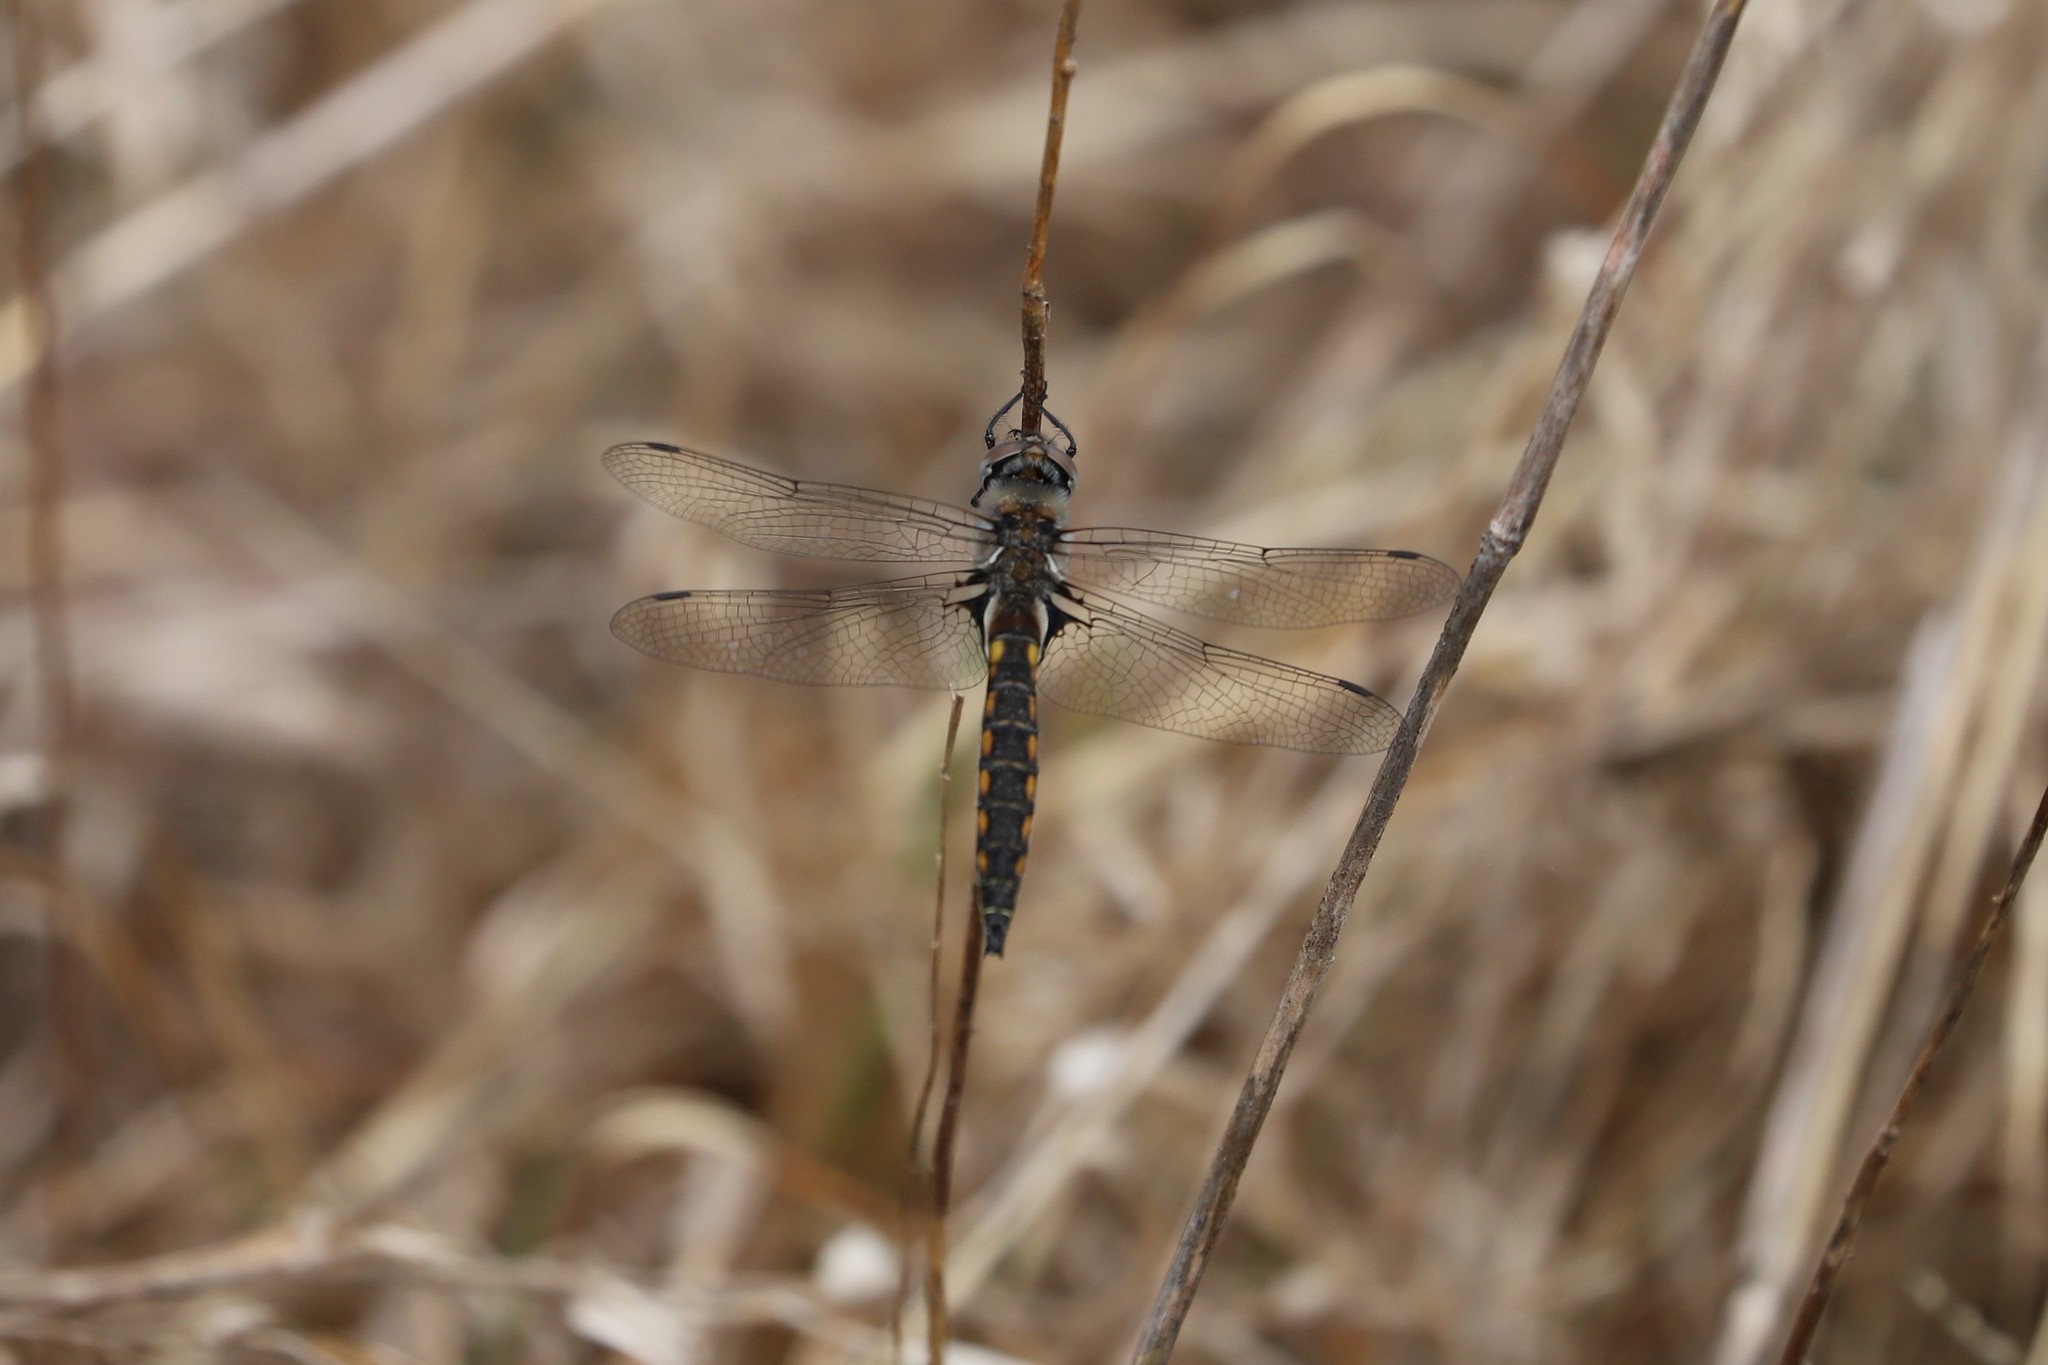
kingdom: Animalia
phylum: Arthropoda
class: Insecta
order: Odonata
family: Corduliidae
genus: Epitheca
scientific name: Epitheca spinosa
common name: Robust baskettail
